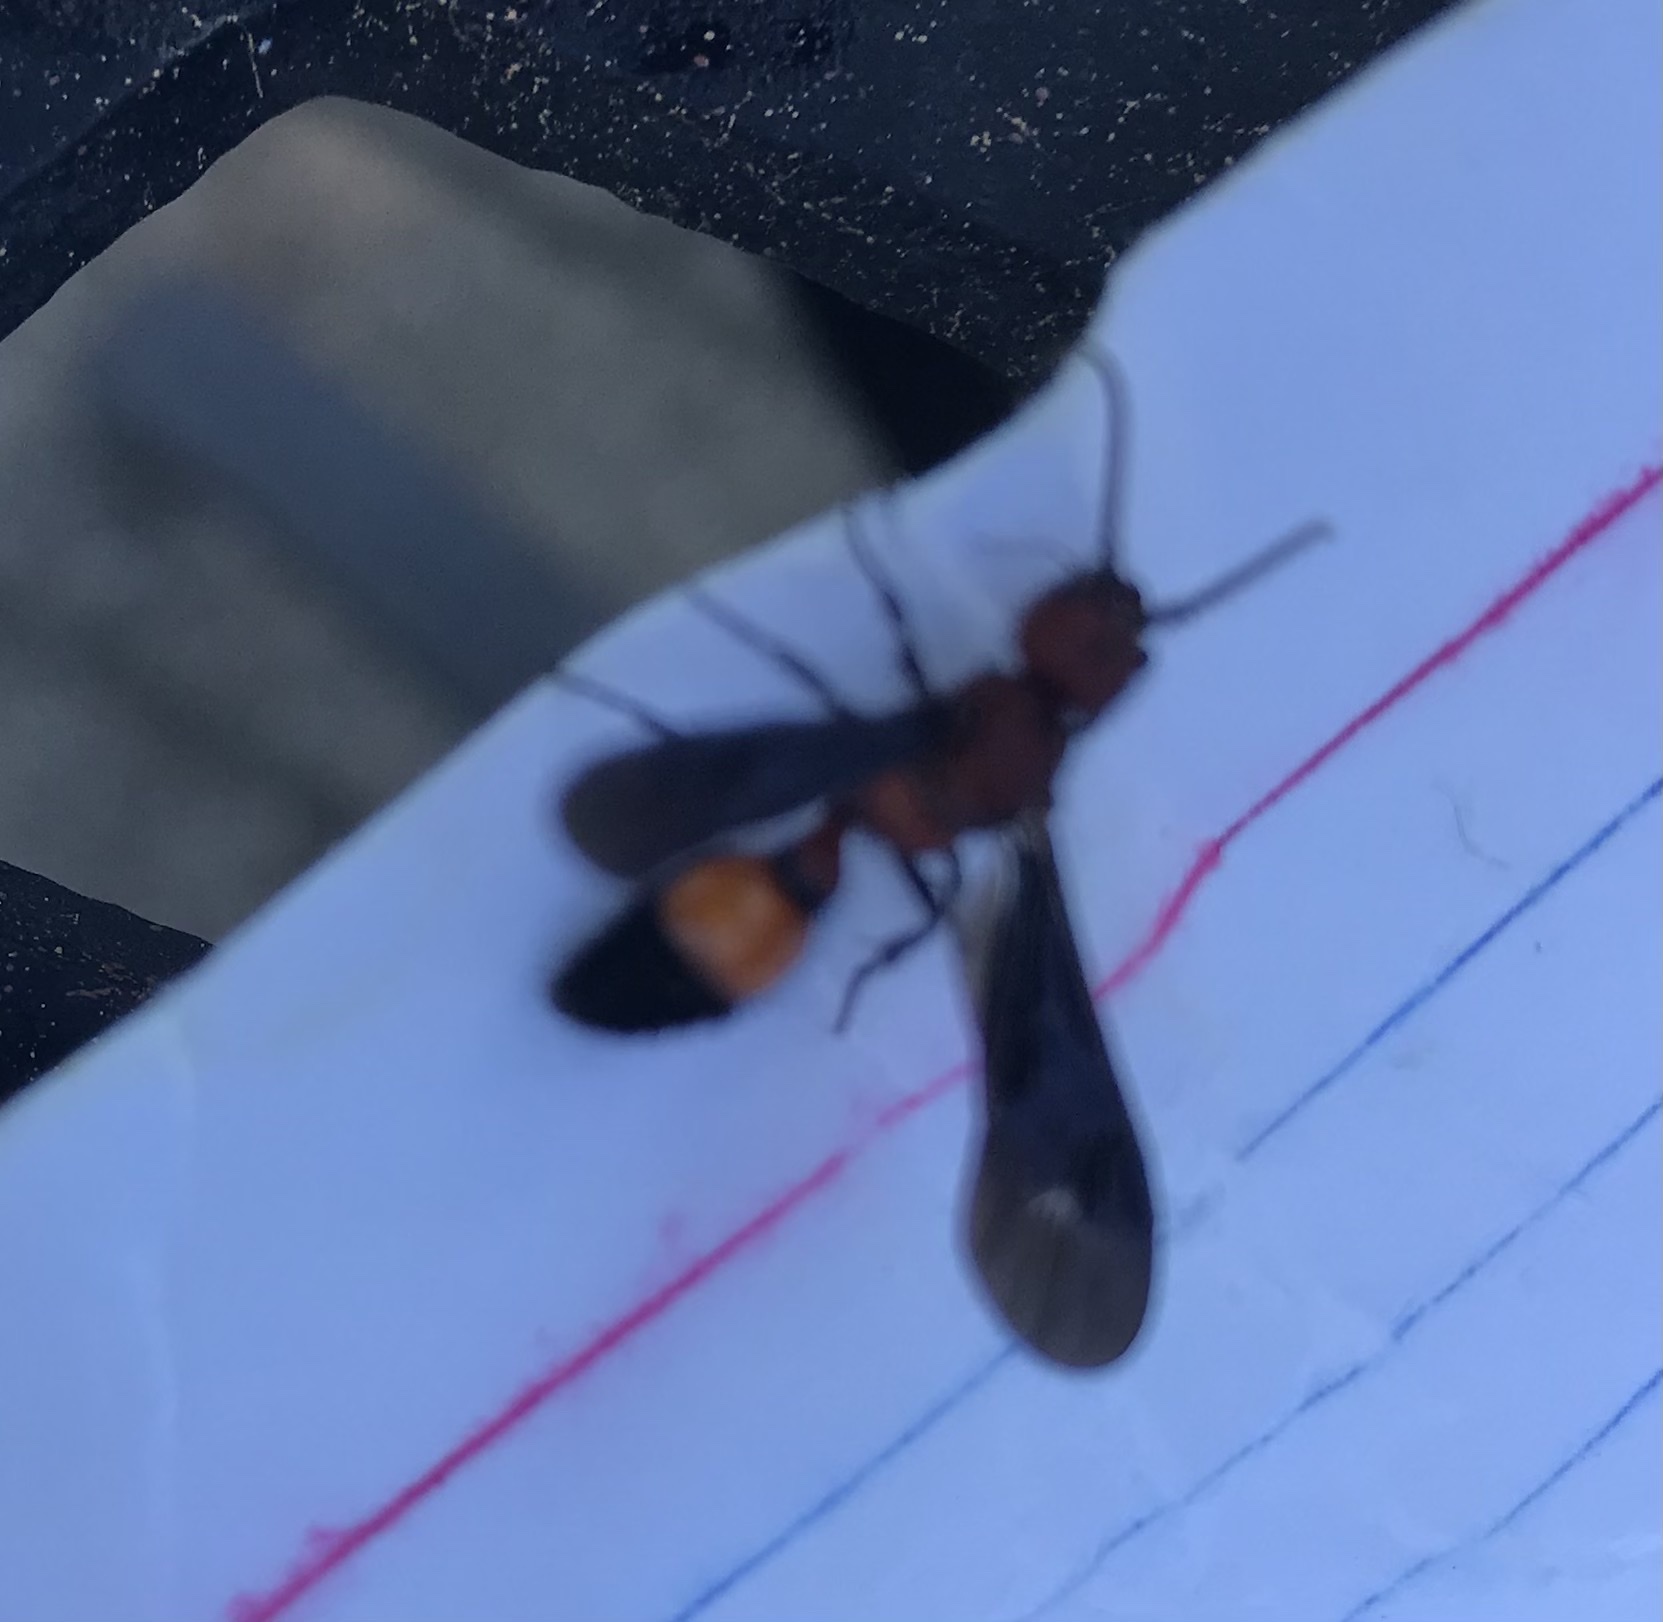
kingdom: Animalia
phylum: Arthropoda
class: Insecta
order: Hymenoptera
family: Mutillidae
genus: Sphaeropthalma
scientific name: Sphaeropthalma
